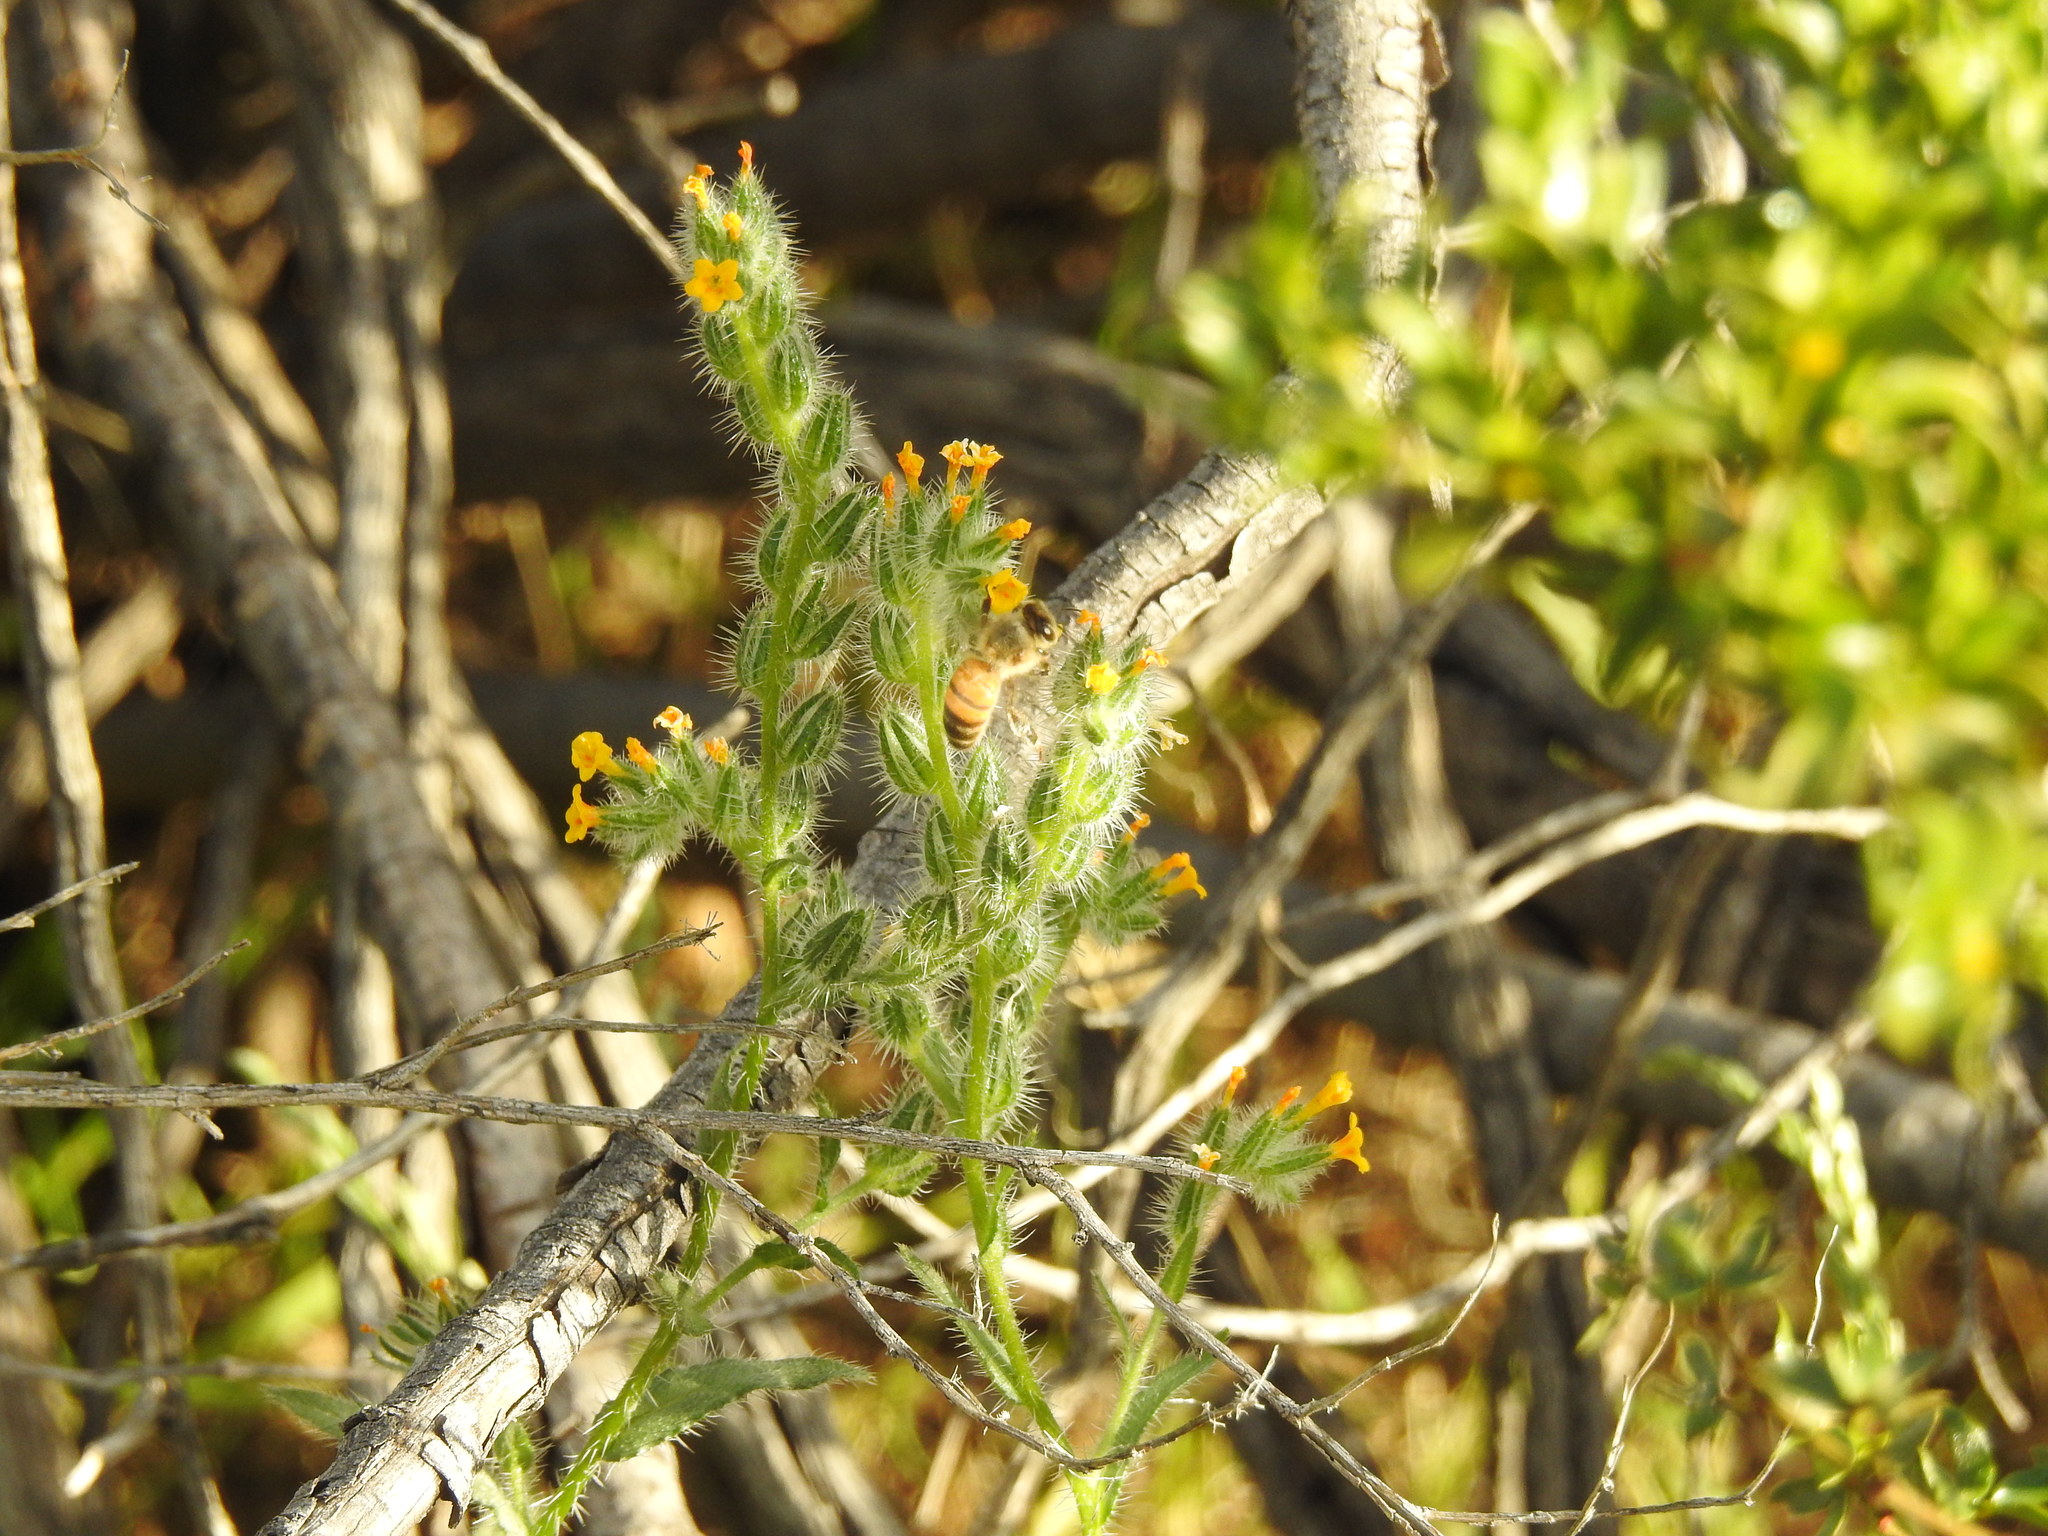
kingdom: Animalia
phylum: Arthropoda
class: Insecta
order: Hymenoptera
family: Apidae
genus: Apis
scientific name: Apis mellifera
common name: Honey bee
